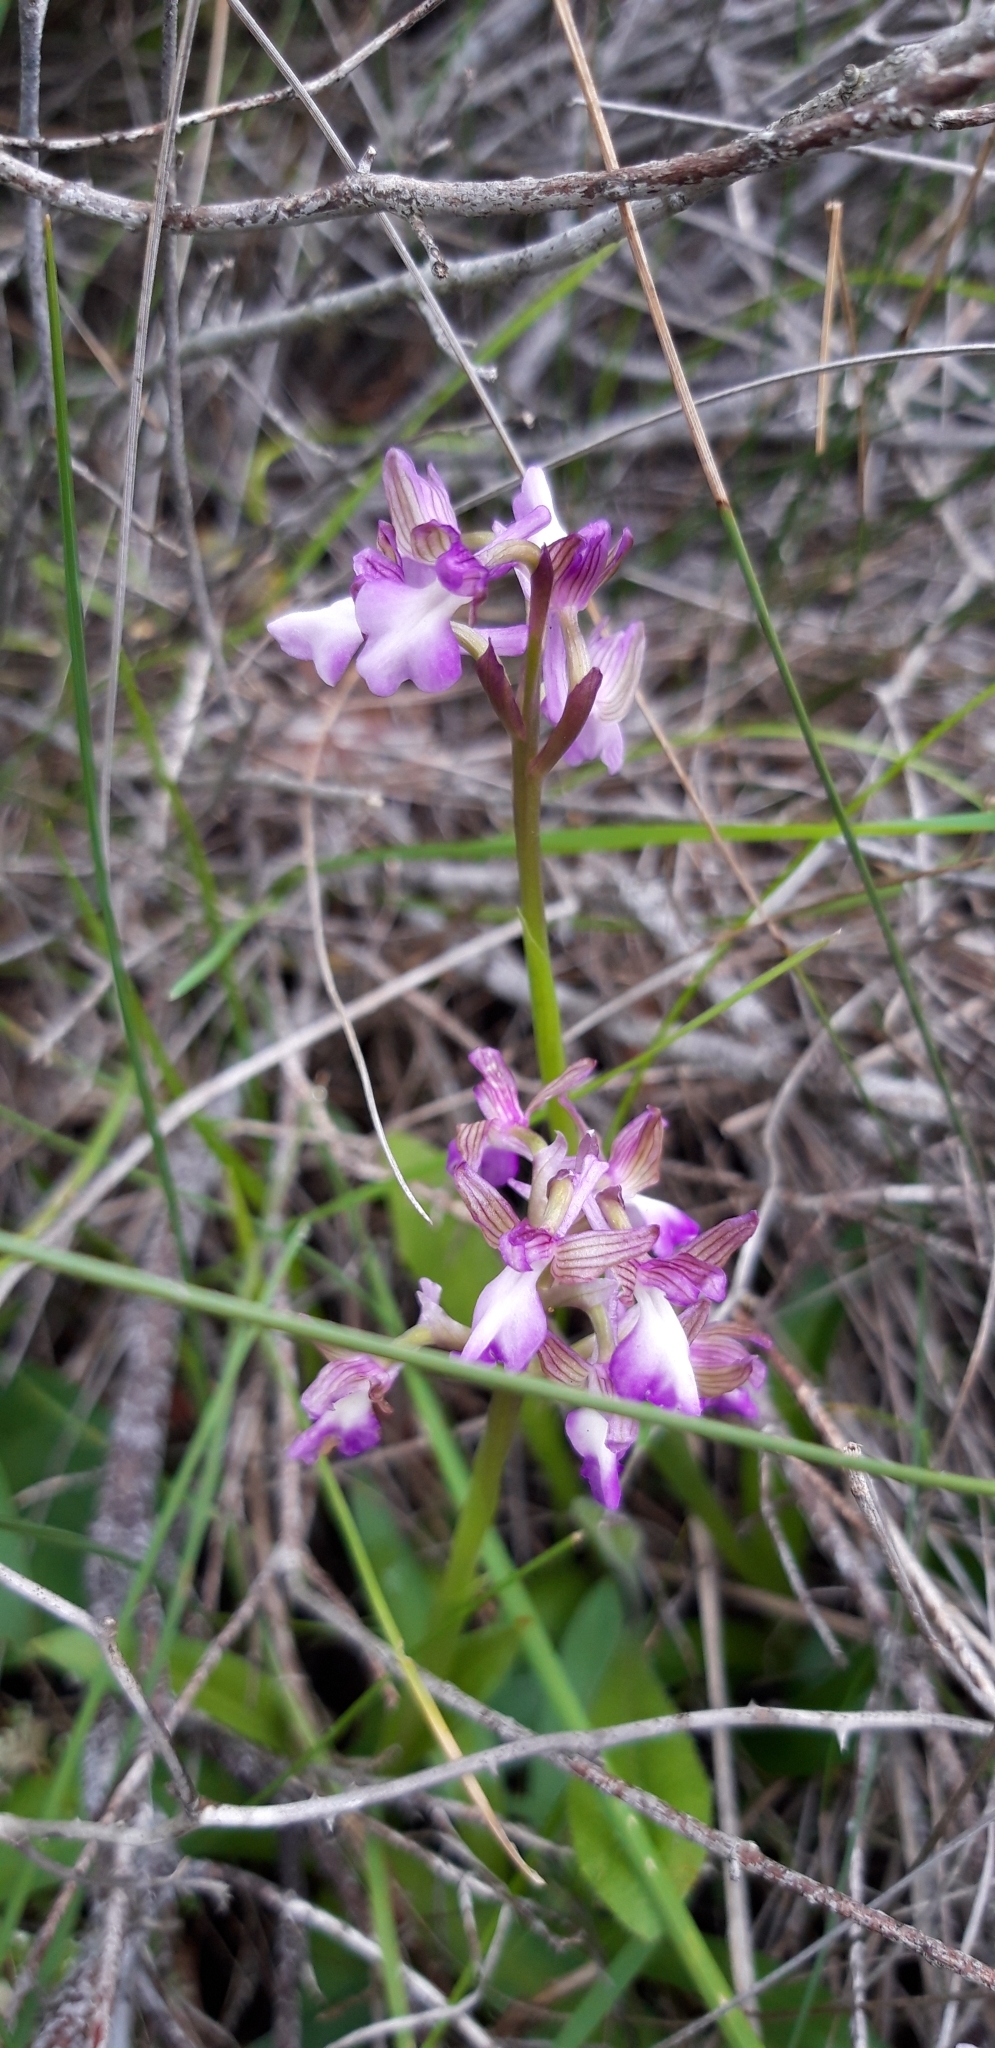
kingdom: Plantae
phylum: Tracheophyta
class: Liliopsida
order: Asparagales
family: Orchidaceae
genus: Anacamptis
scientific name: Anacamptis morio
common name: Green-winged orchid
